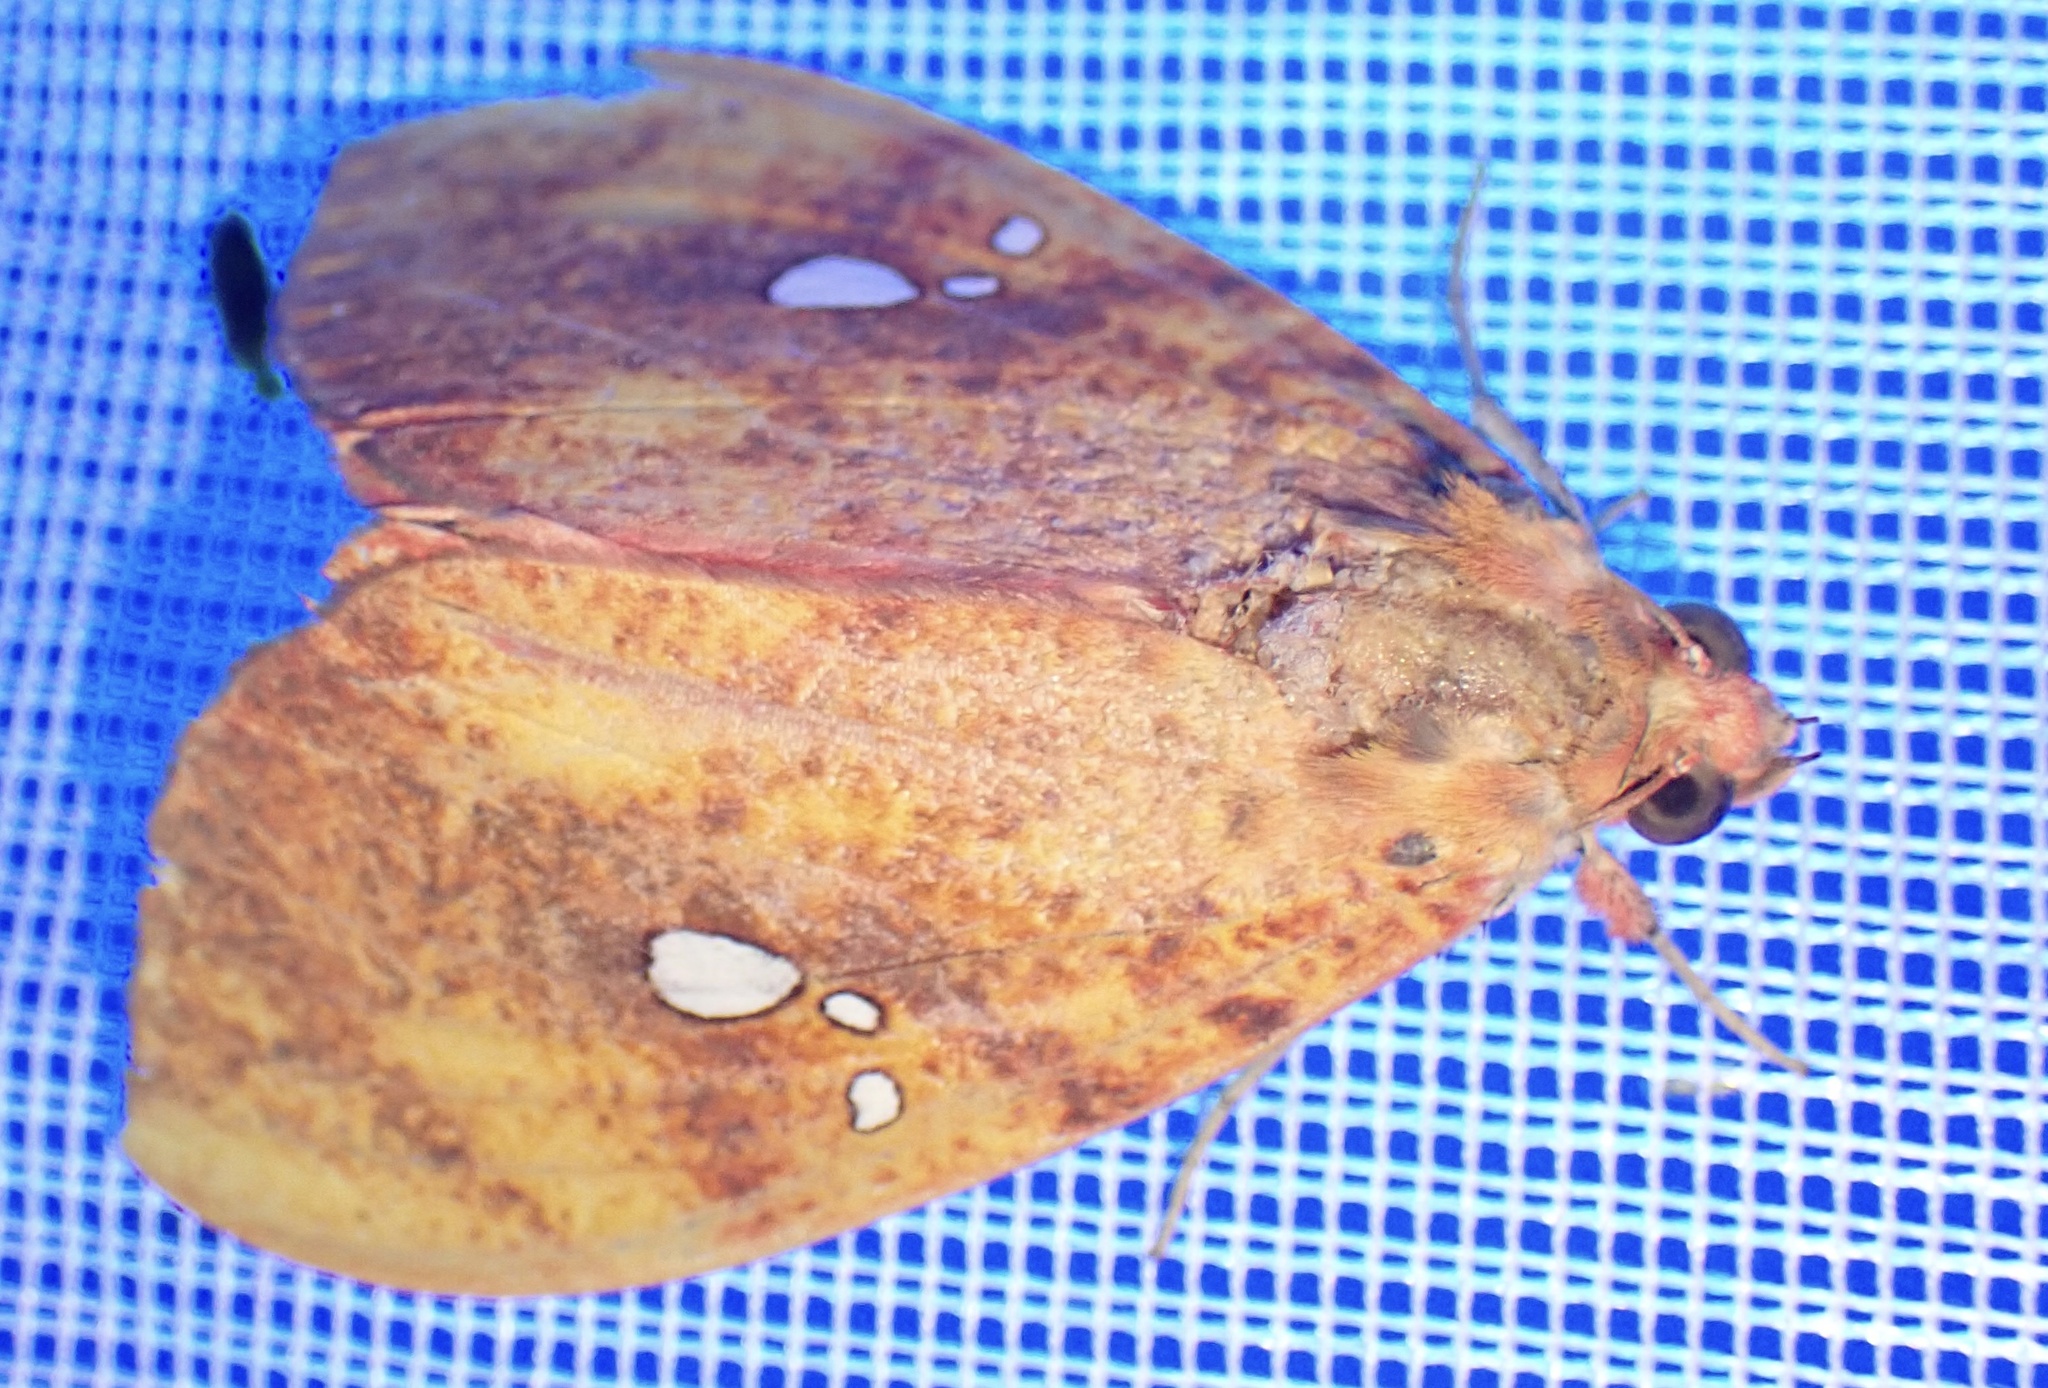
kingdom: Animalia
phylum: Arthropoda
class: Insecta
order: Lepidoptera
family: Erebidae
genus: Miniodes
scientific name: Miniodes discolor
